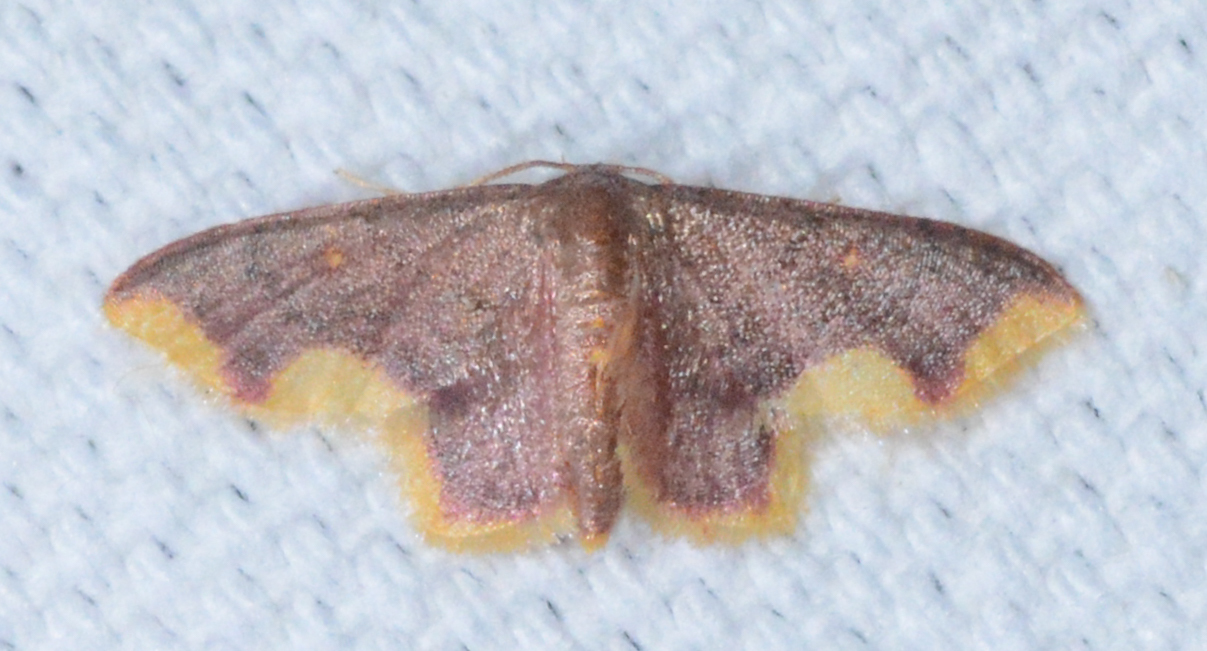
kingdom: Animalia
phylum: Arthropoda
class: Insecta
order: Lepidoptera
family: Geometridae
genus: Lophosis
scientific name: Lophosis labeculata
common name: Stained lophosis moth
